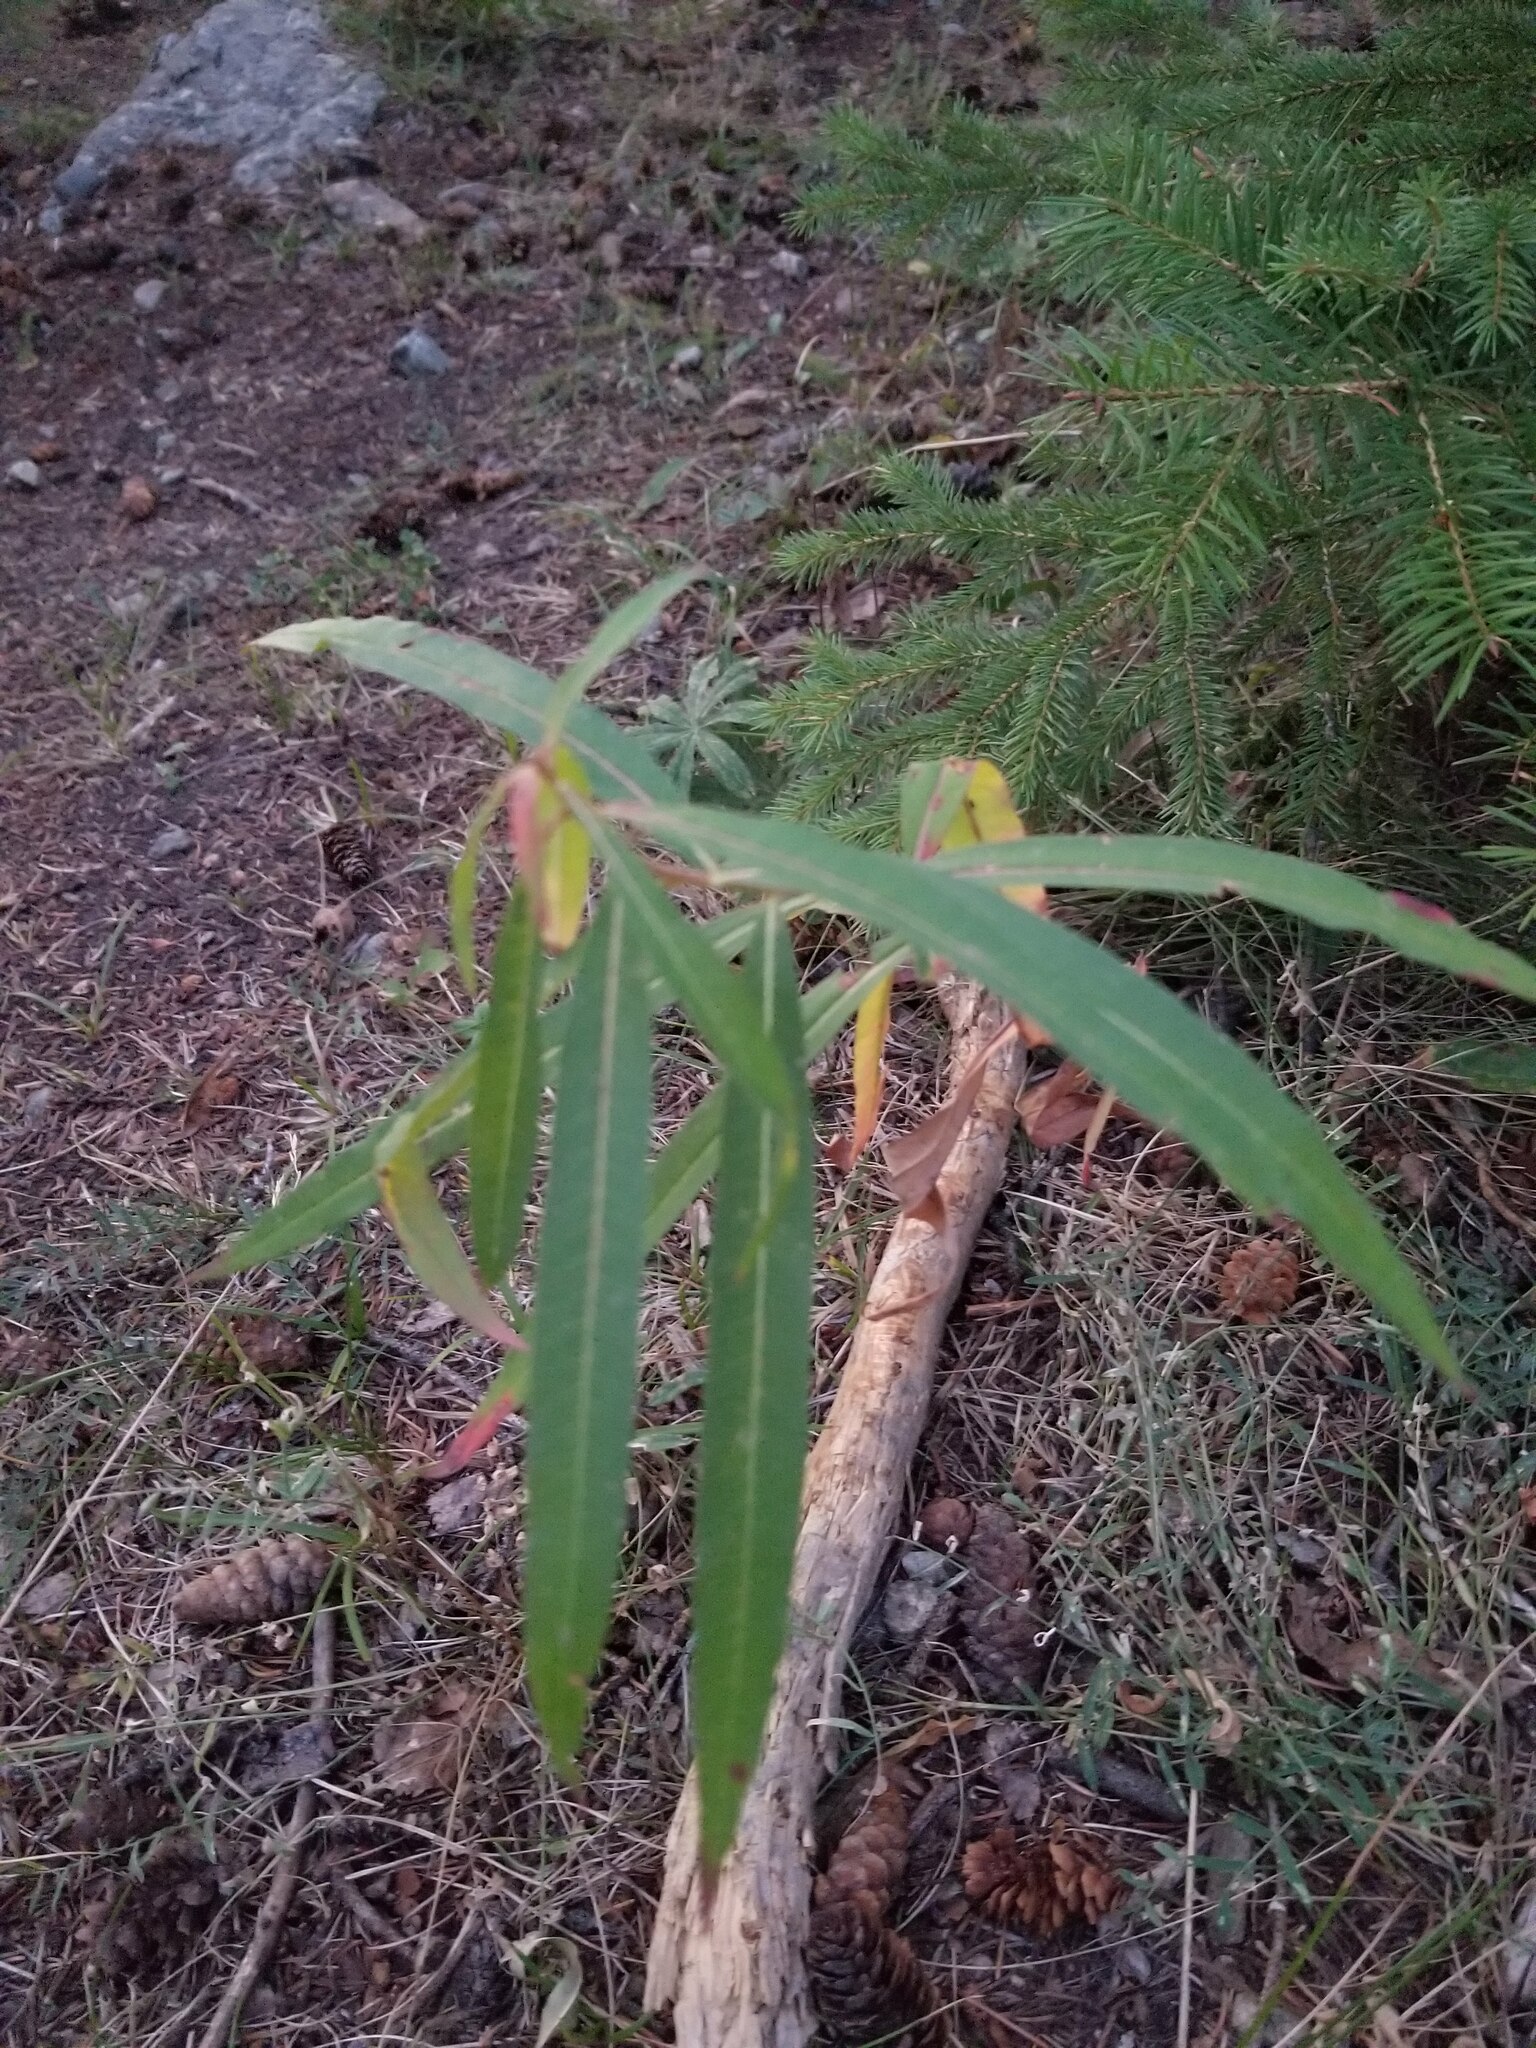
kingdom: Plantae
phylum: Tracheophyta
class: Magnoliopsida
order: Myrtales
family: Onagraceae
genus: Chamaenerion
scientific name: Chamaenerion angustifolium
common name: Fireweed
